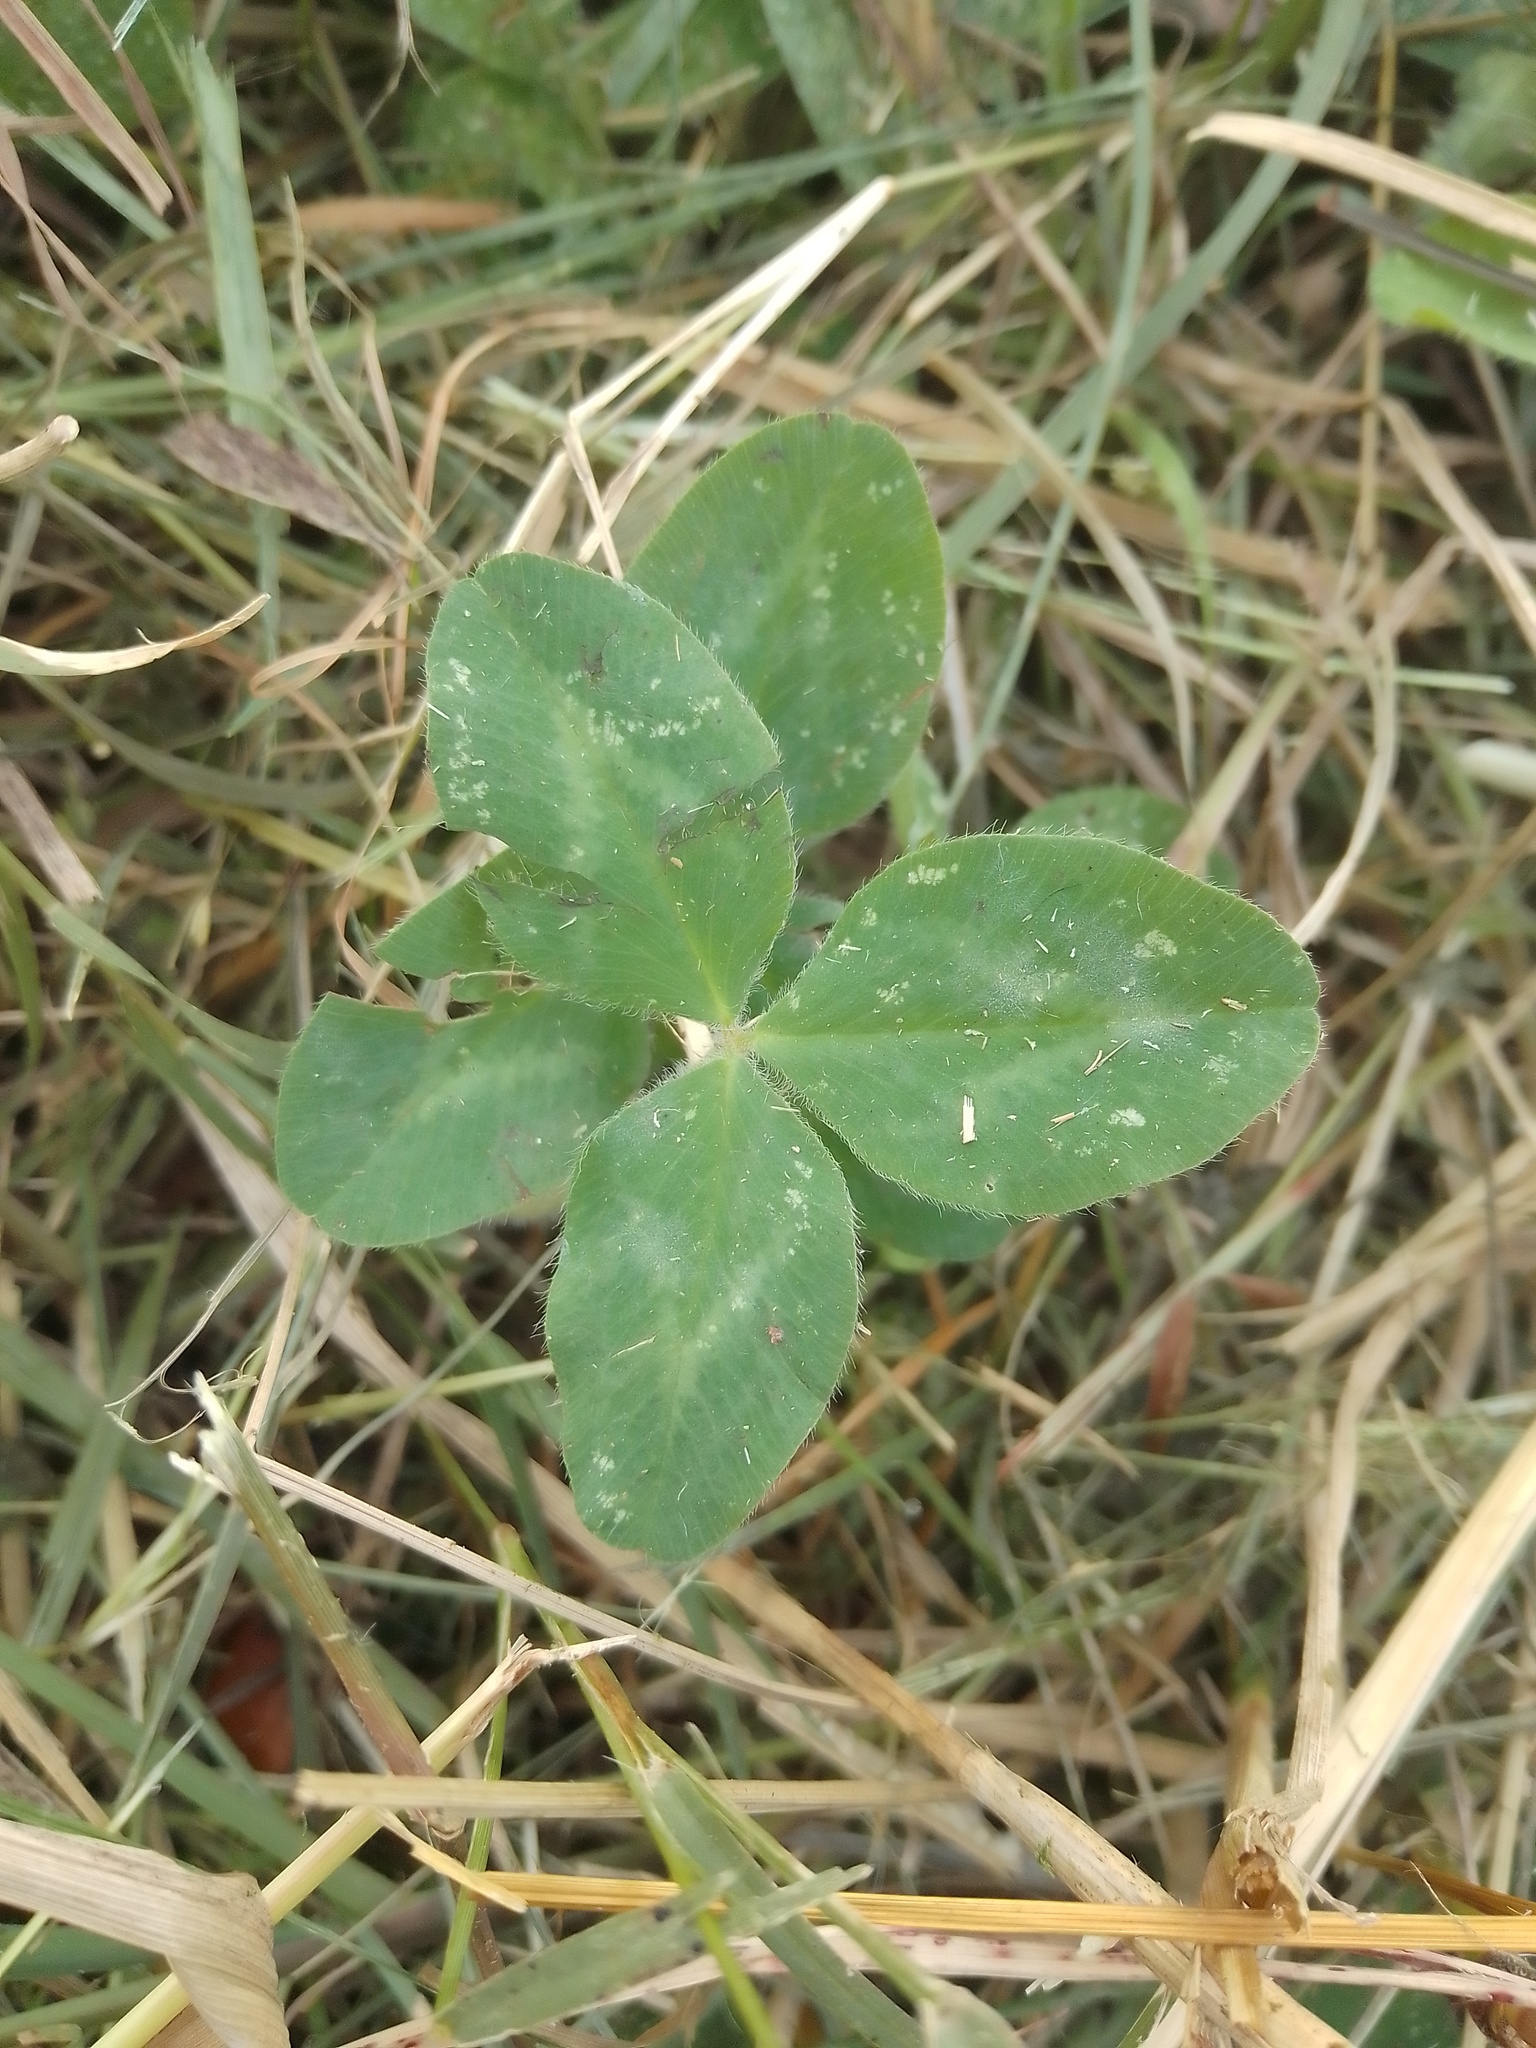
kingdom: Plantae
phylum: Tracheophyta
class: Magnoliopsida
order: Fabales
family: Fabaceae
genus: Trifolium
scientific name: Trifolium pratense
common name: Red clover
